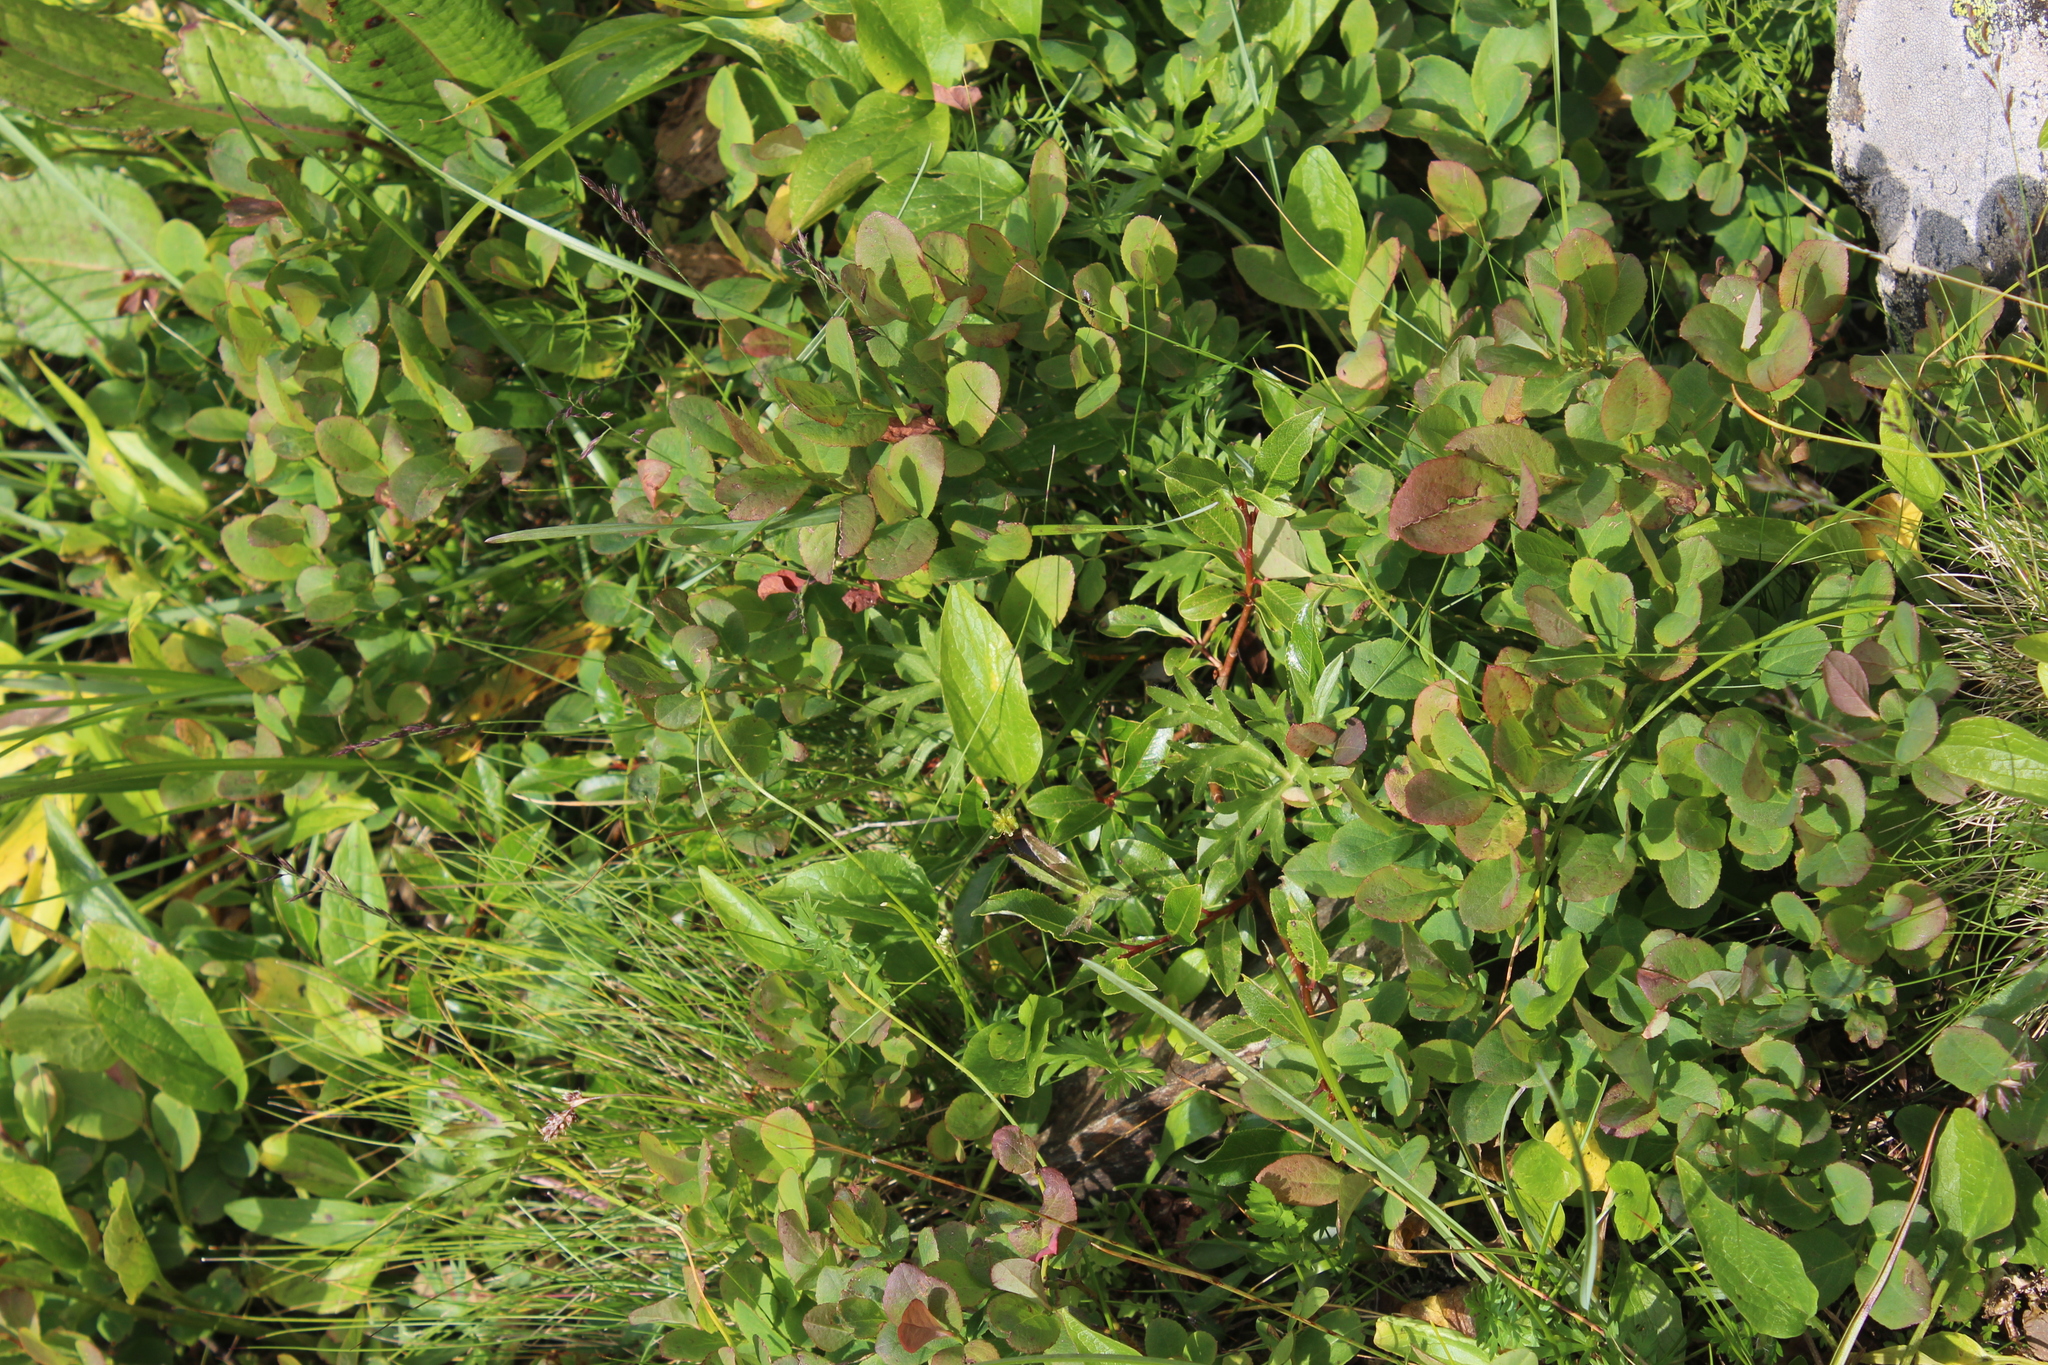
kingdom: Plantae
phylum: Tracheophyta
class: Magnoliopsida
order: Ericales
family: Ericaceae
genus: Vaccinium
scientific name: Vaccinium myrtillus
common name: Bilberry
